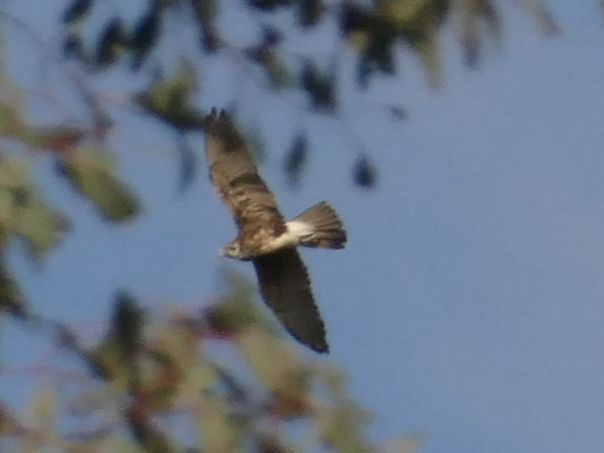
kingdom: Animalia
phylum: Chordata
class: Aves
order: Falconiformes
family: Falconidae
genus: Falco
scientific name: Falco berigora
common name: Brown falcon
